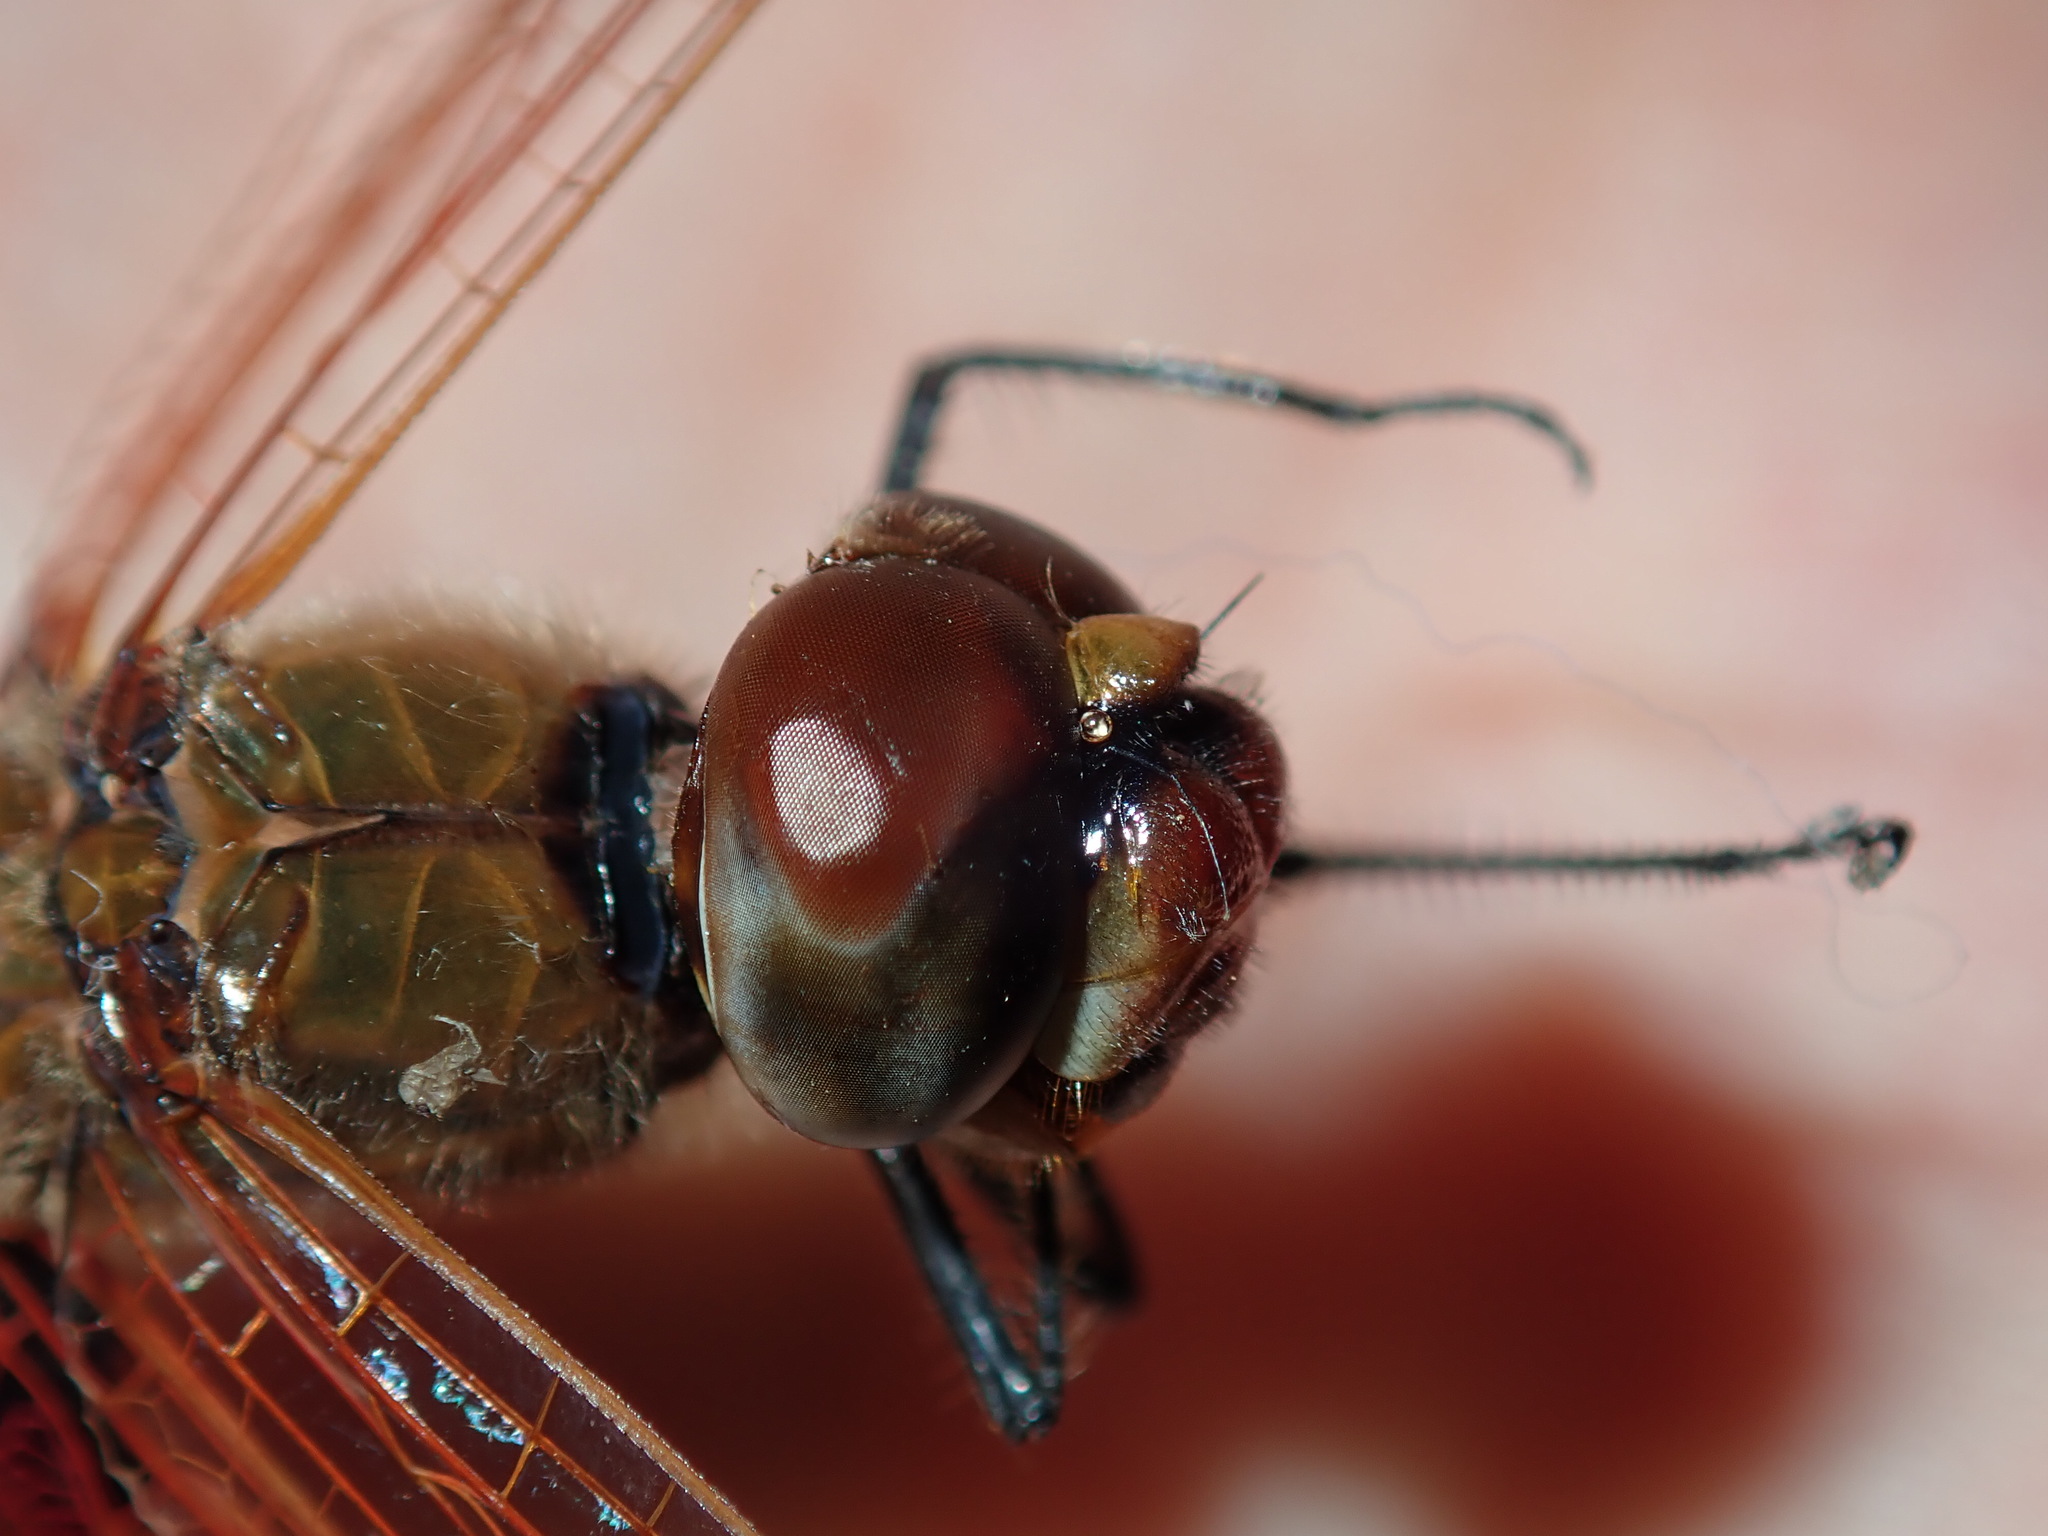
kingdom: Animalia
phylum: Arthropoda
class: Insecta
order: Odonata
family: Libellulidae
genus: Tramea
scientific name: Tramea loewii
